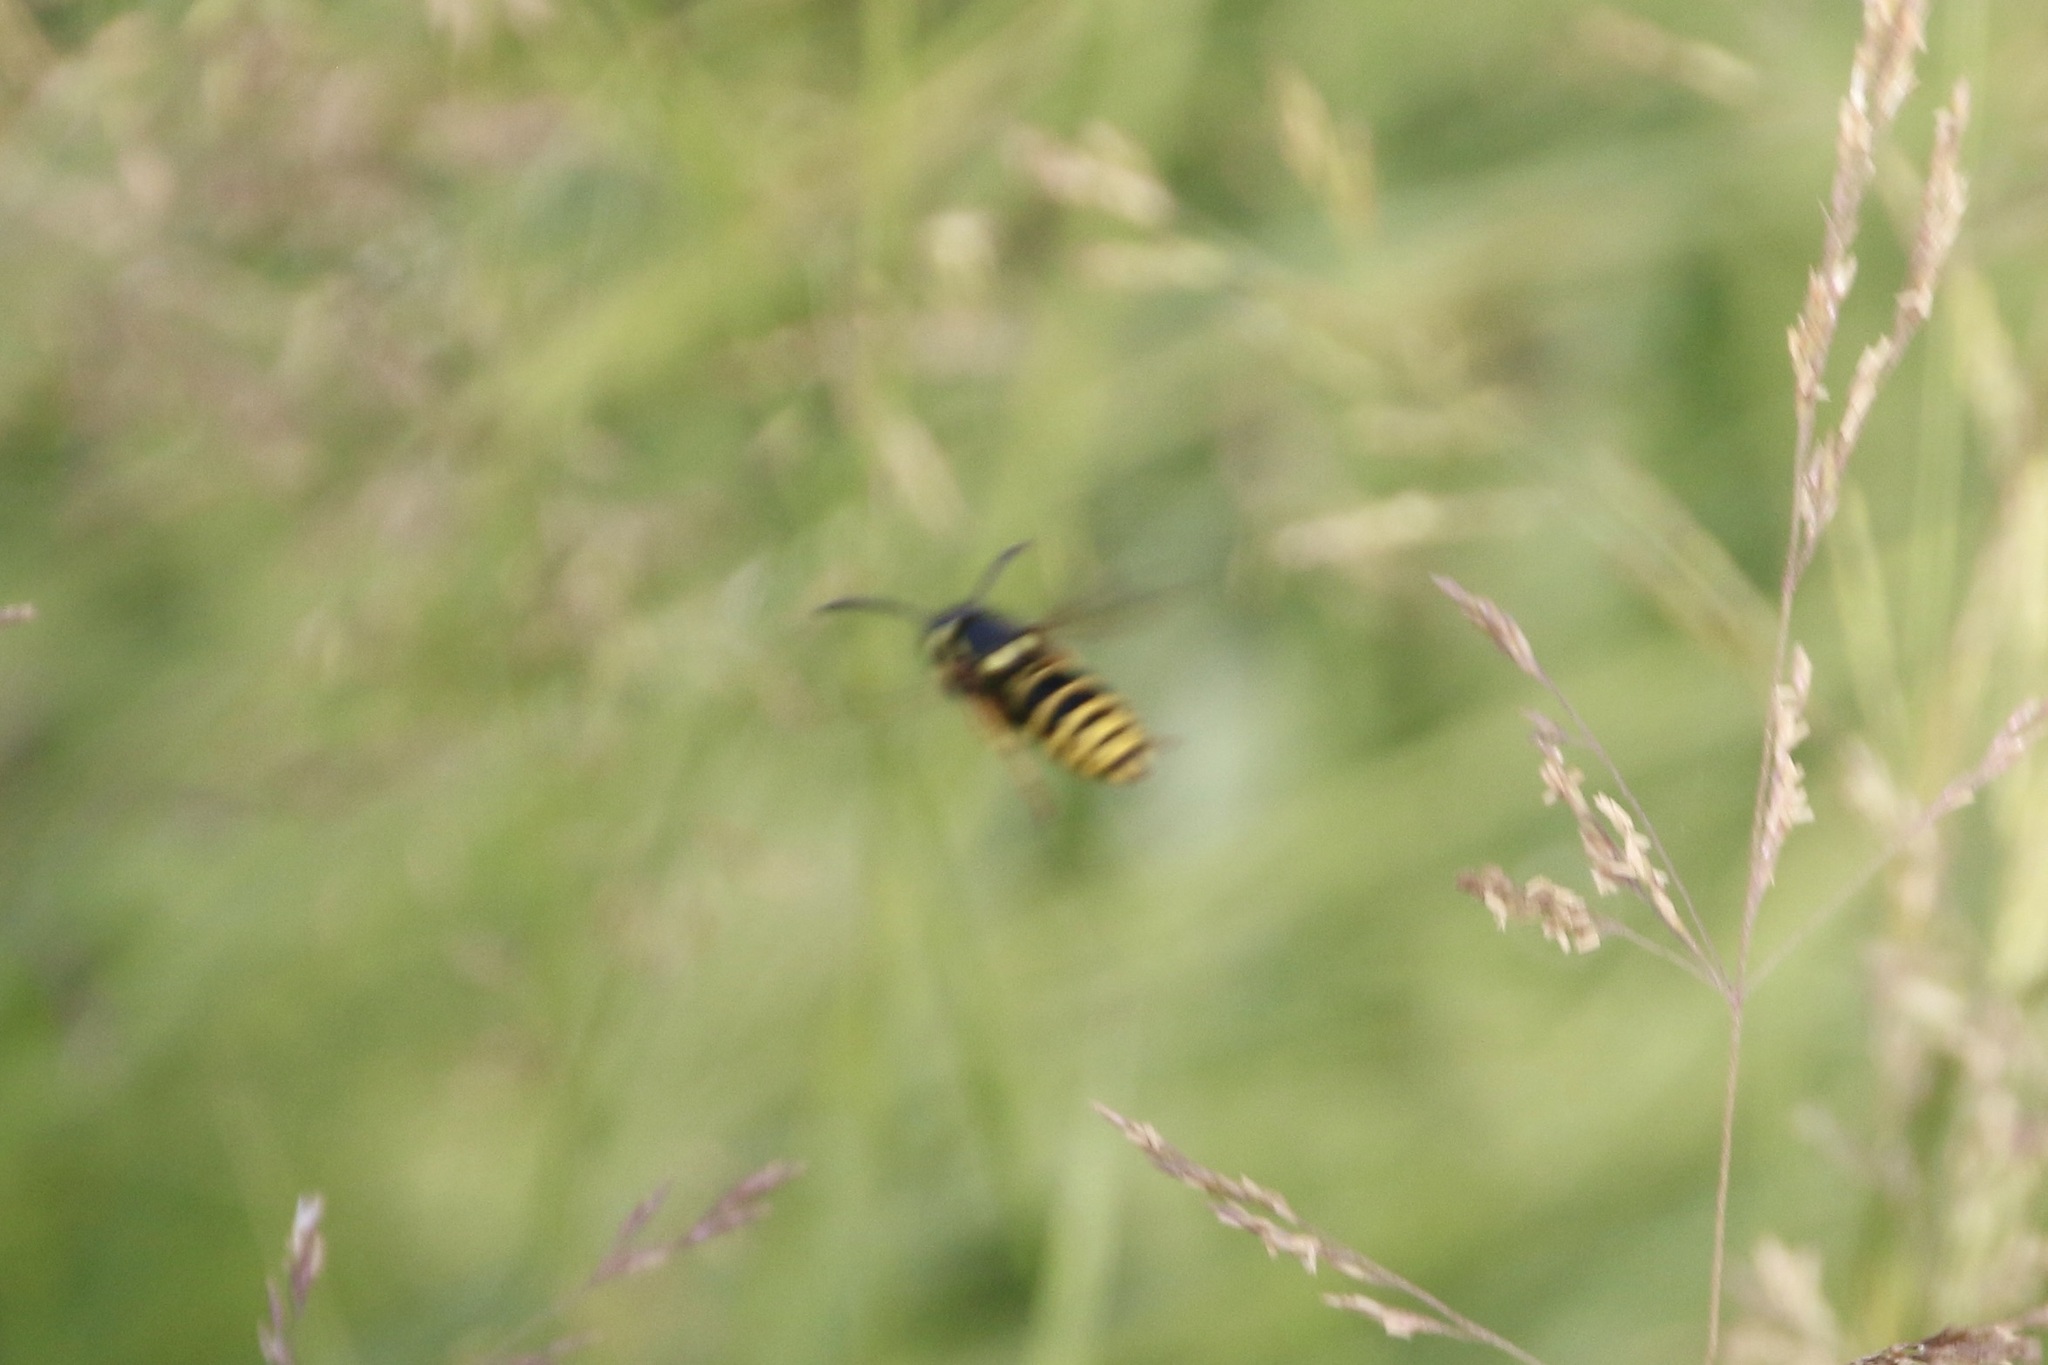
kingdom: Animalia
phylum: Arthropoda
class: Insecta
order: Hymenoptera
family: Vespidae
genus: Vespula
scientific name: Vespula maculifrons
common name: Eastern yellowjacket
